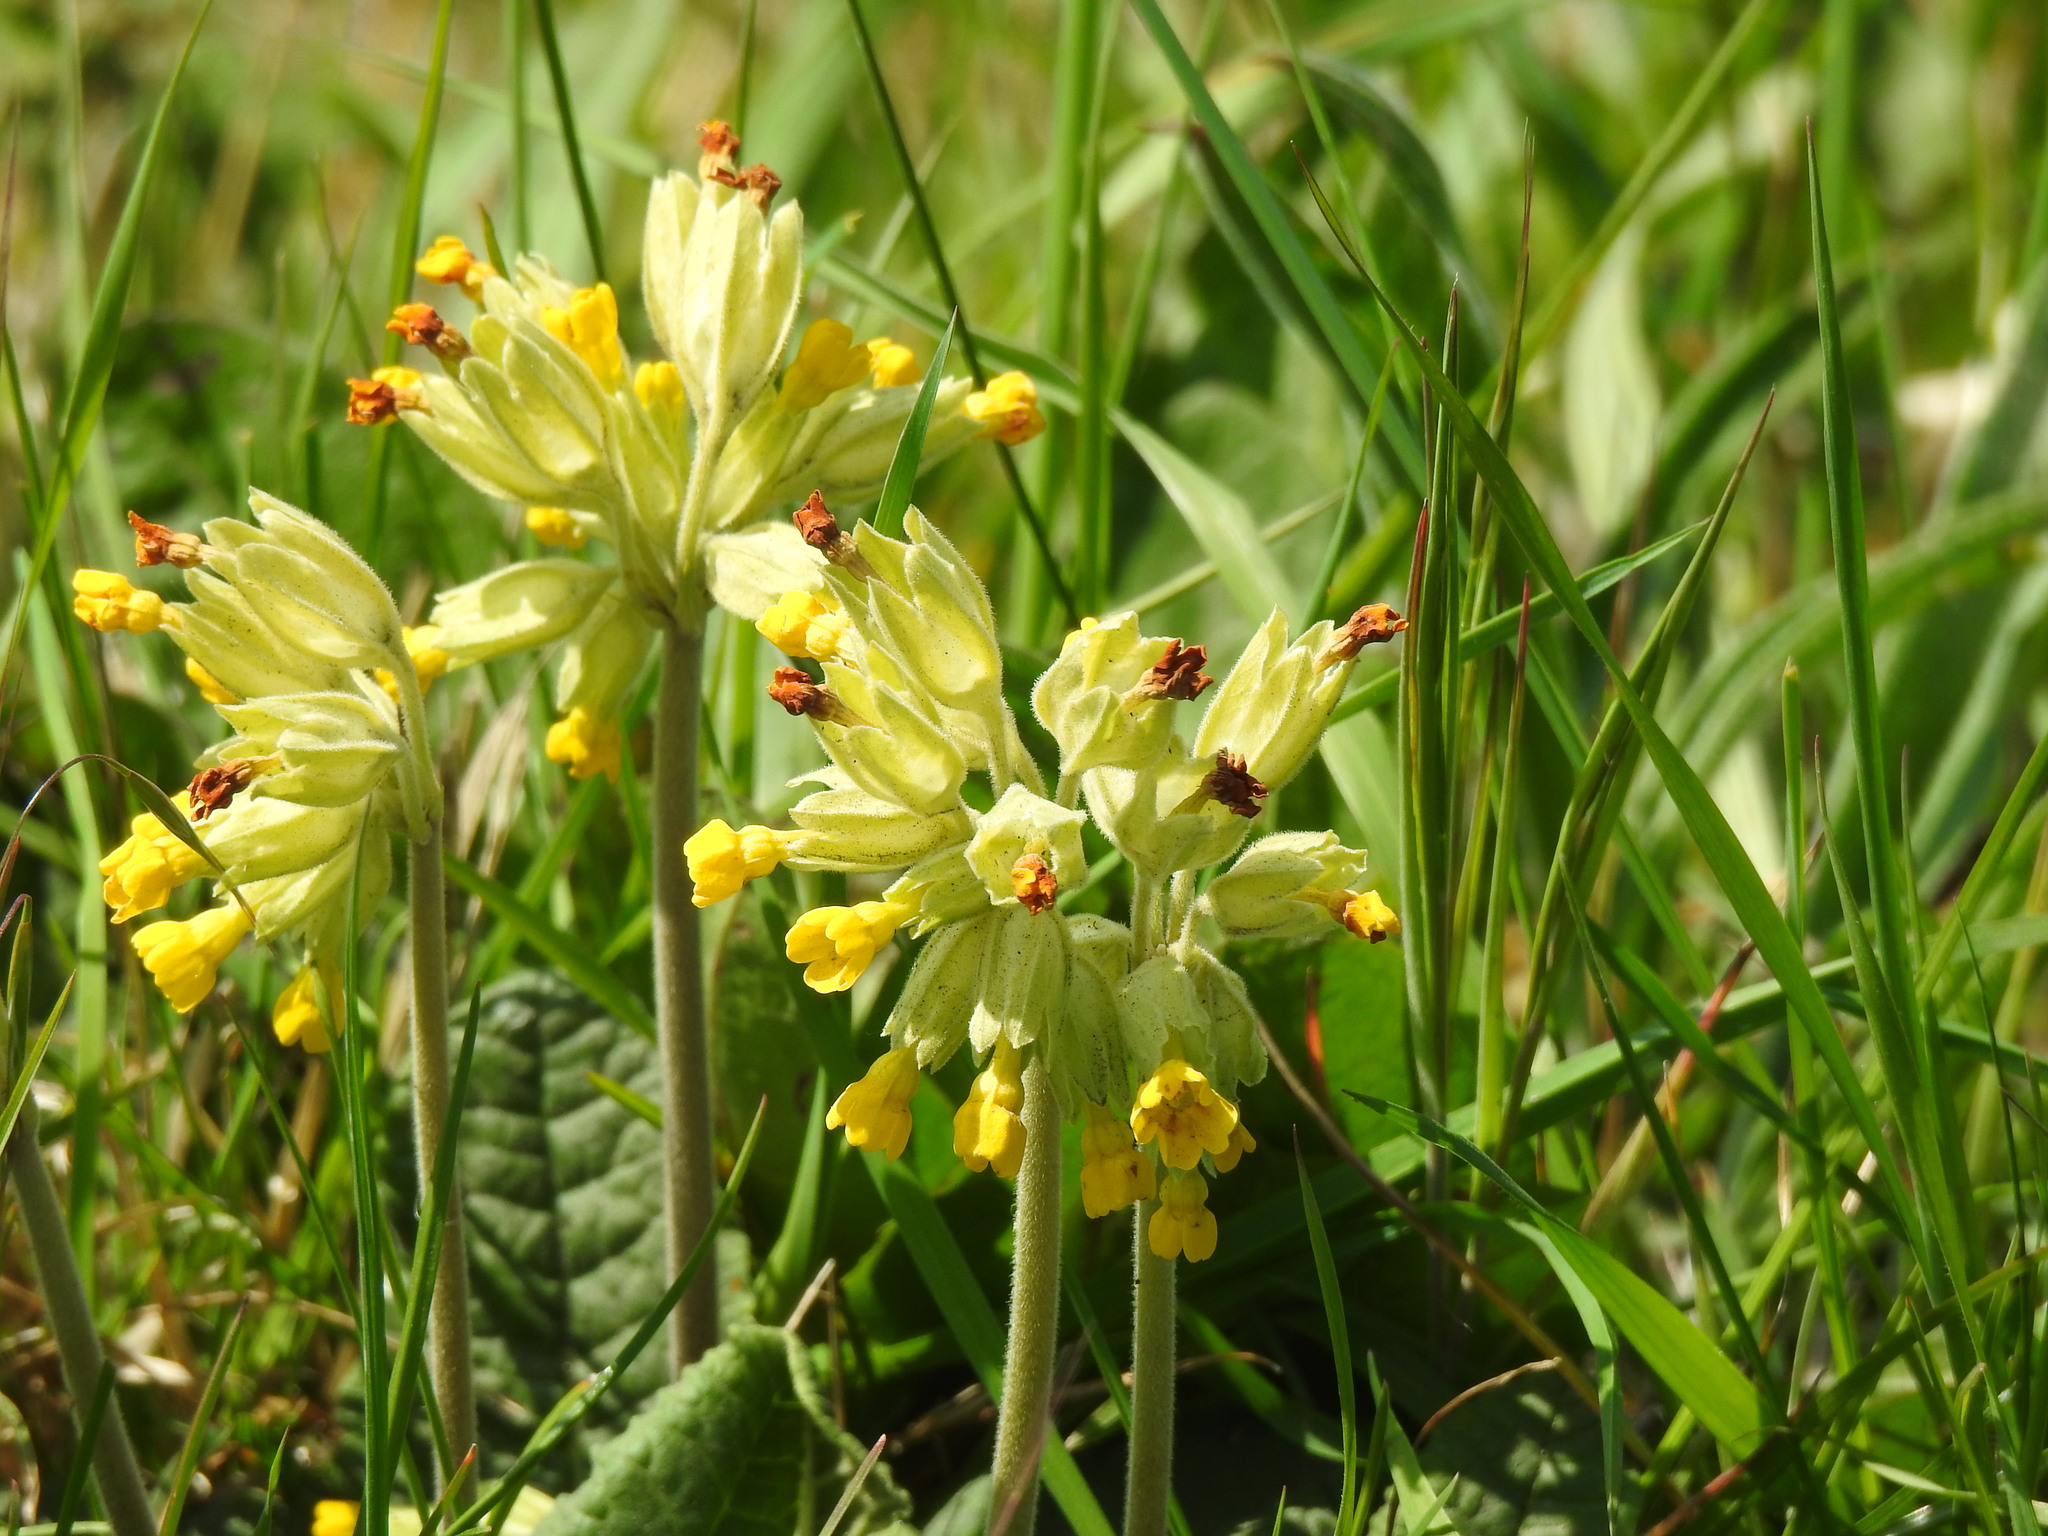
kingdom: Plantae
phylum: Tracheophyta
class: Magnoliopsida
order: Ericales
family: Primulaceae
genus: Primula
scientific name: Primula veris
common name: Cowslip
